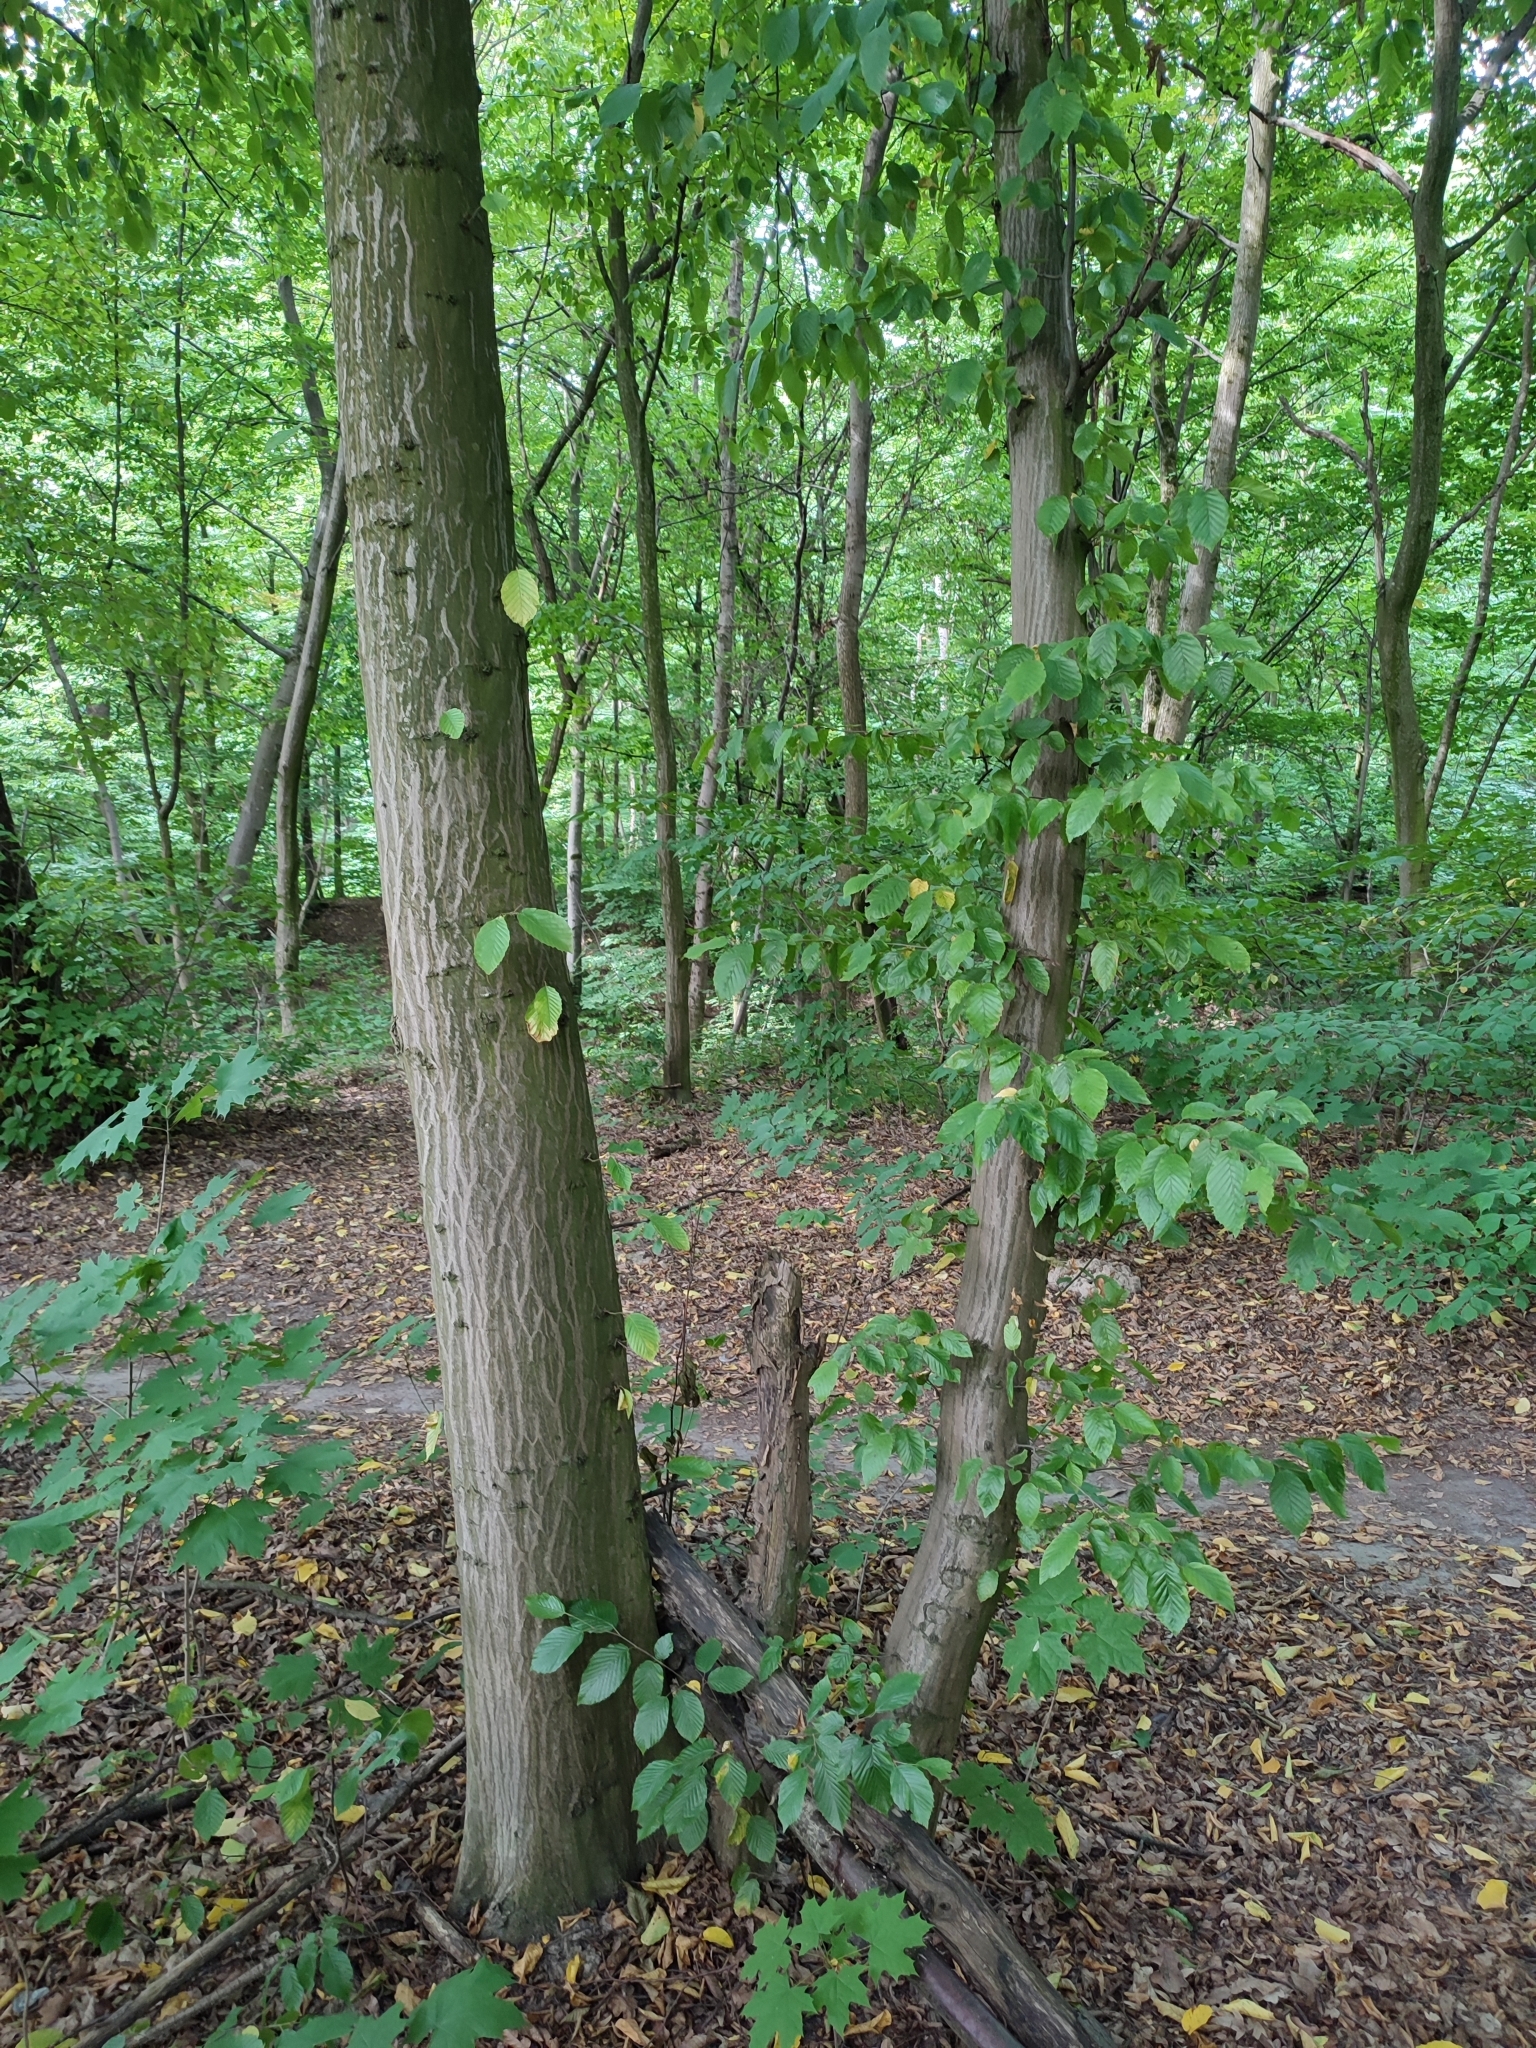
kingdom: Plantae
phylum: Tracheophyta
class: Magnoliopsida
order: Fagales
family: Betulaceae
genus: Carpinus
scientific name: Carpinus betulus
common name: Hornbeam
